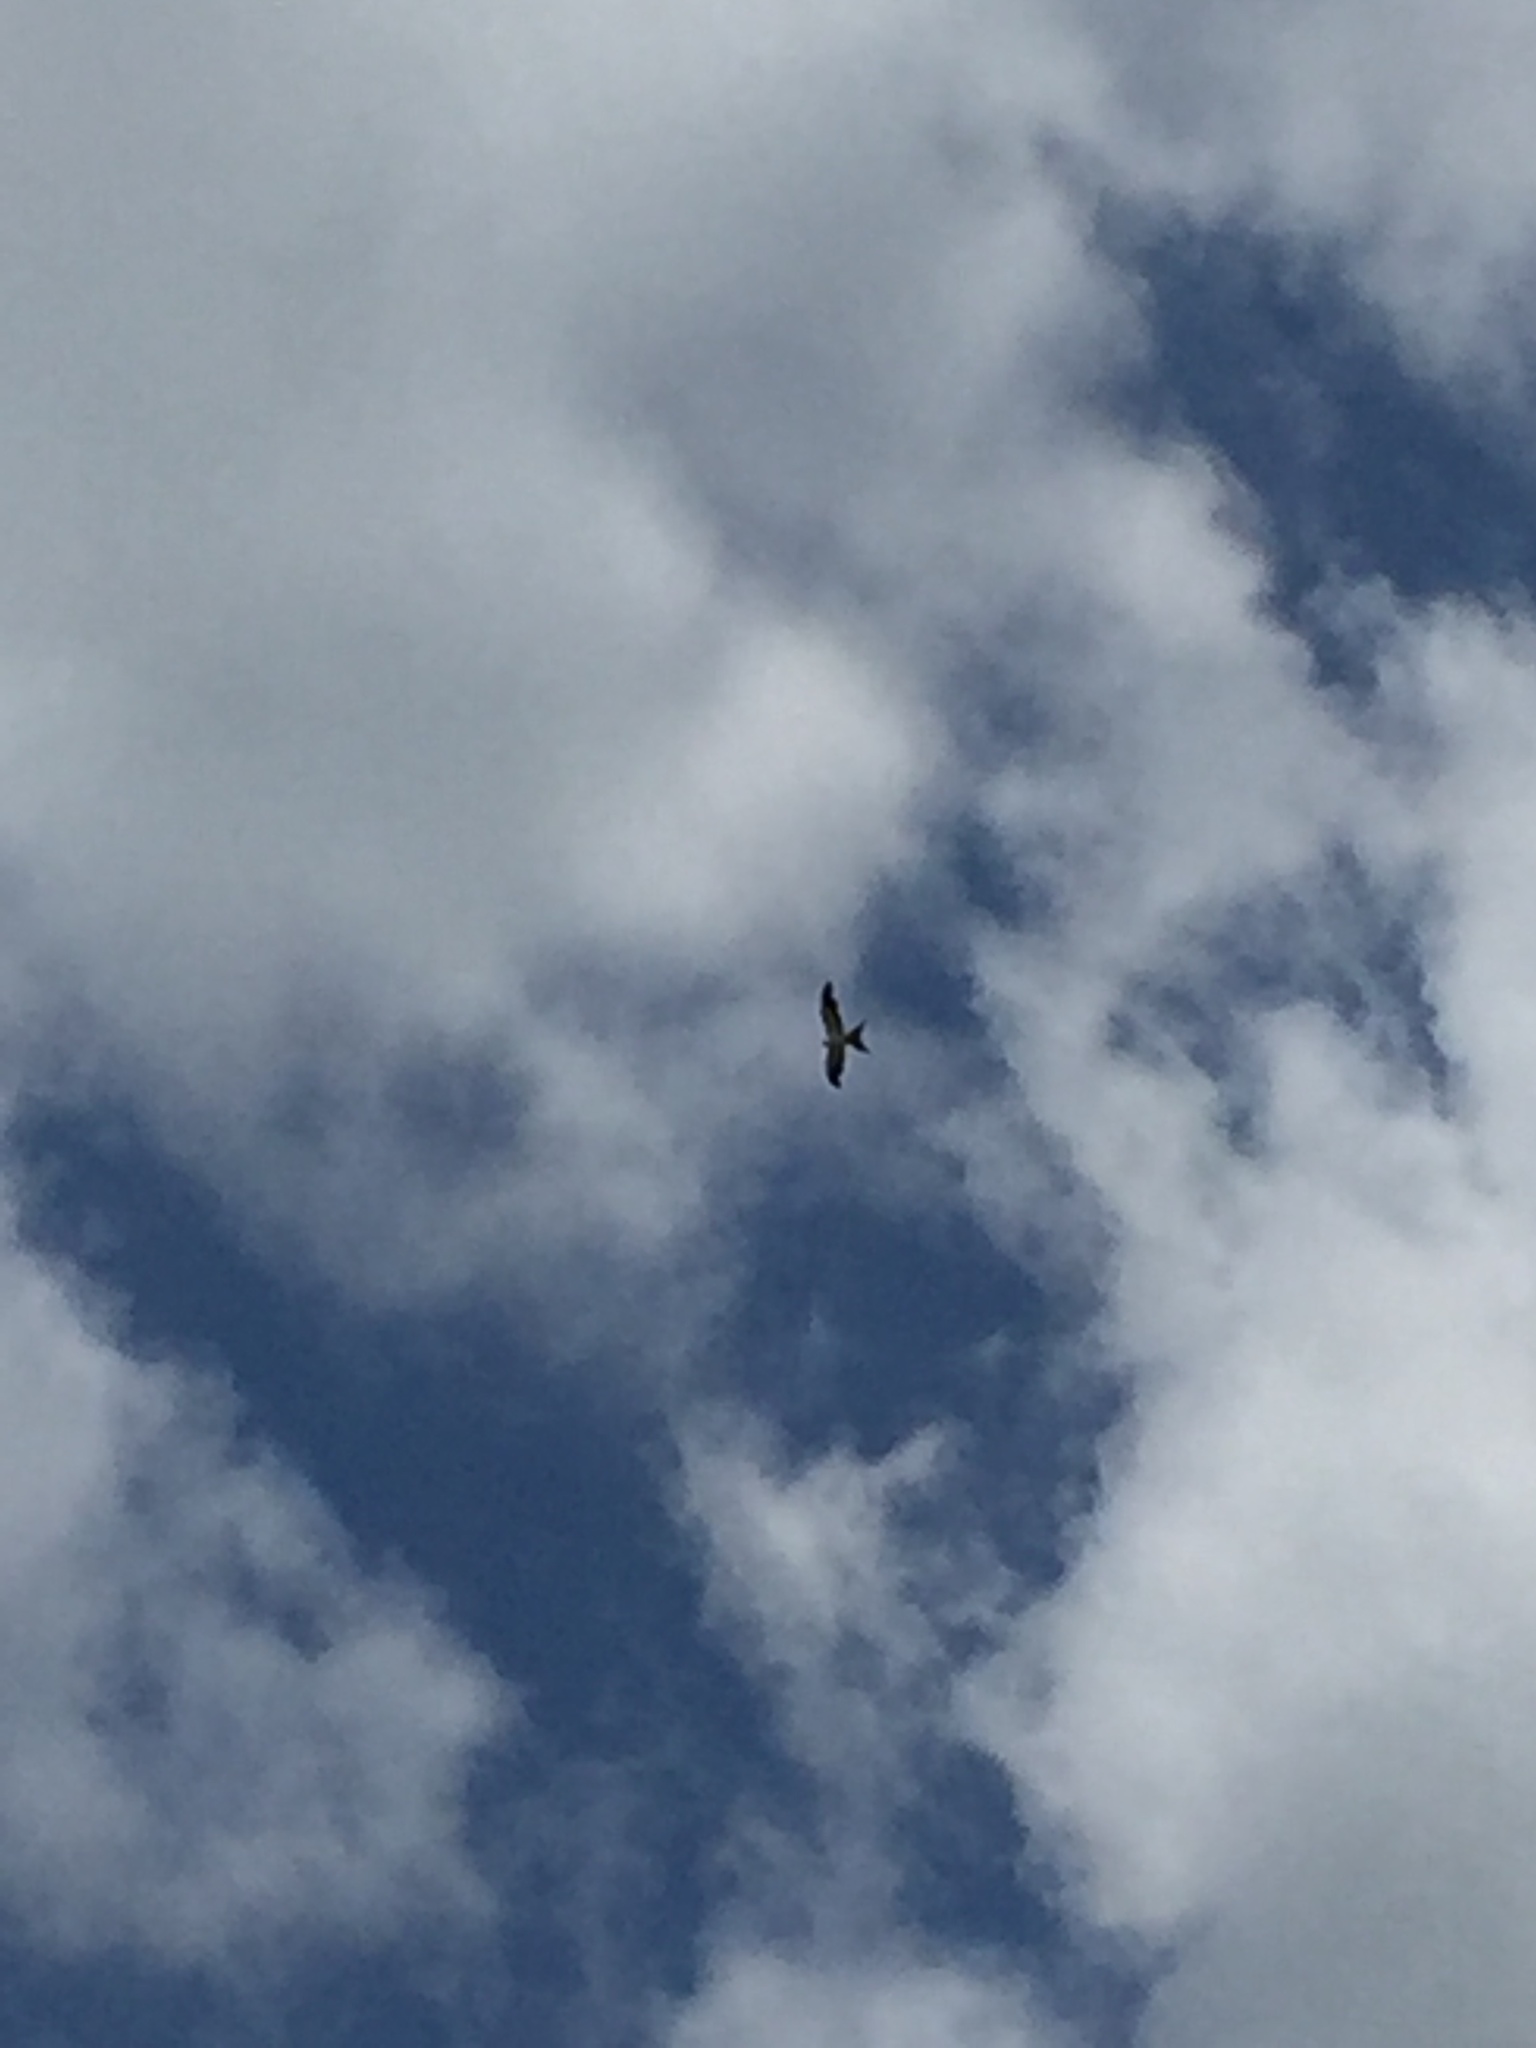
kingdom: Animalia
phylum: Chordata
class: Aves
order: Accipitriformes
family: Accipitridae
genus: Elanoides
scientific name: Elanoides forficatus
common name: Swallow-tailed kite
